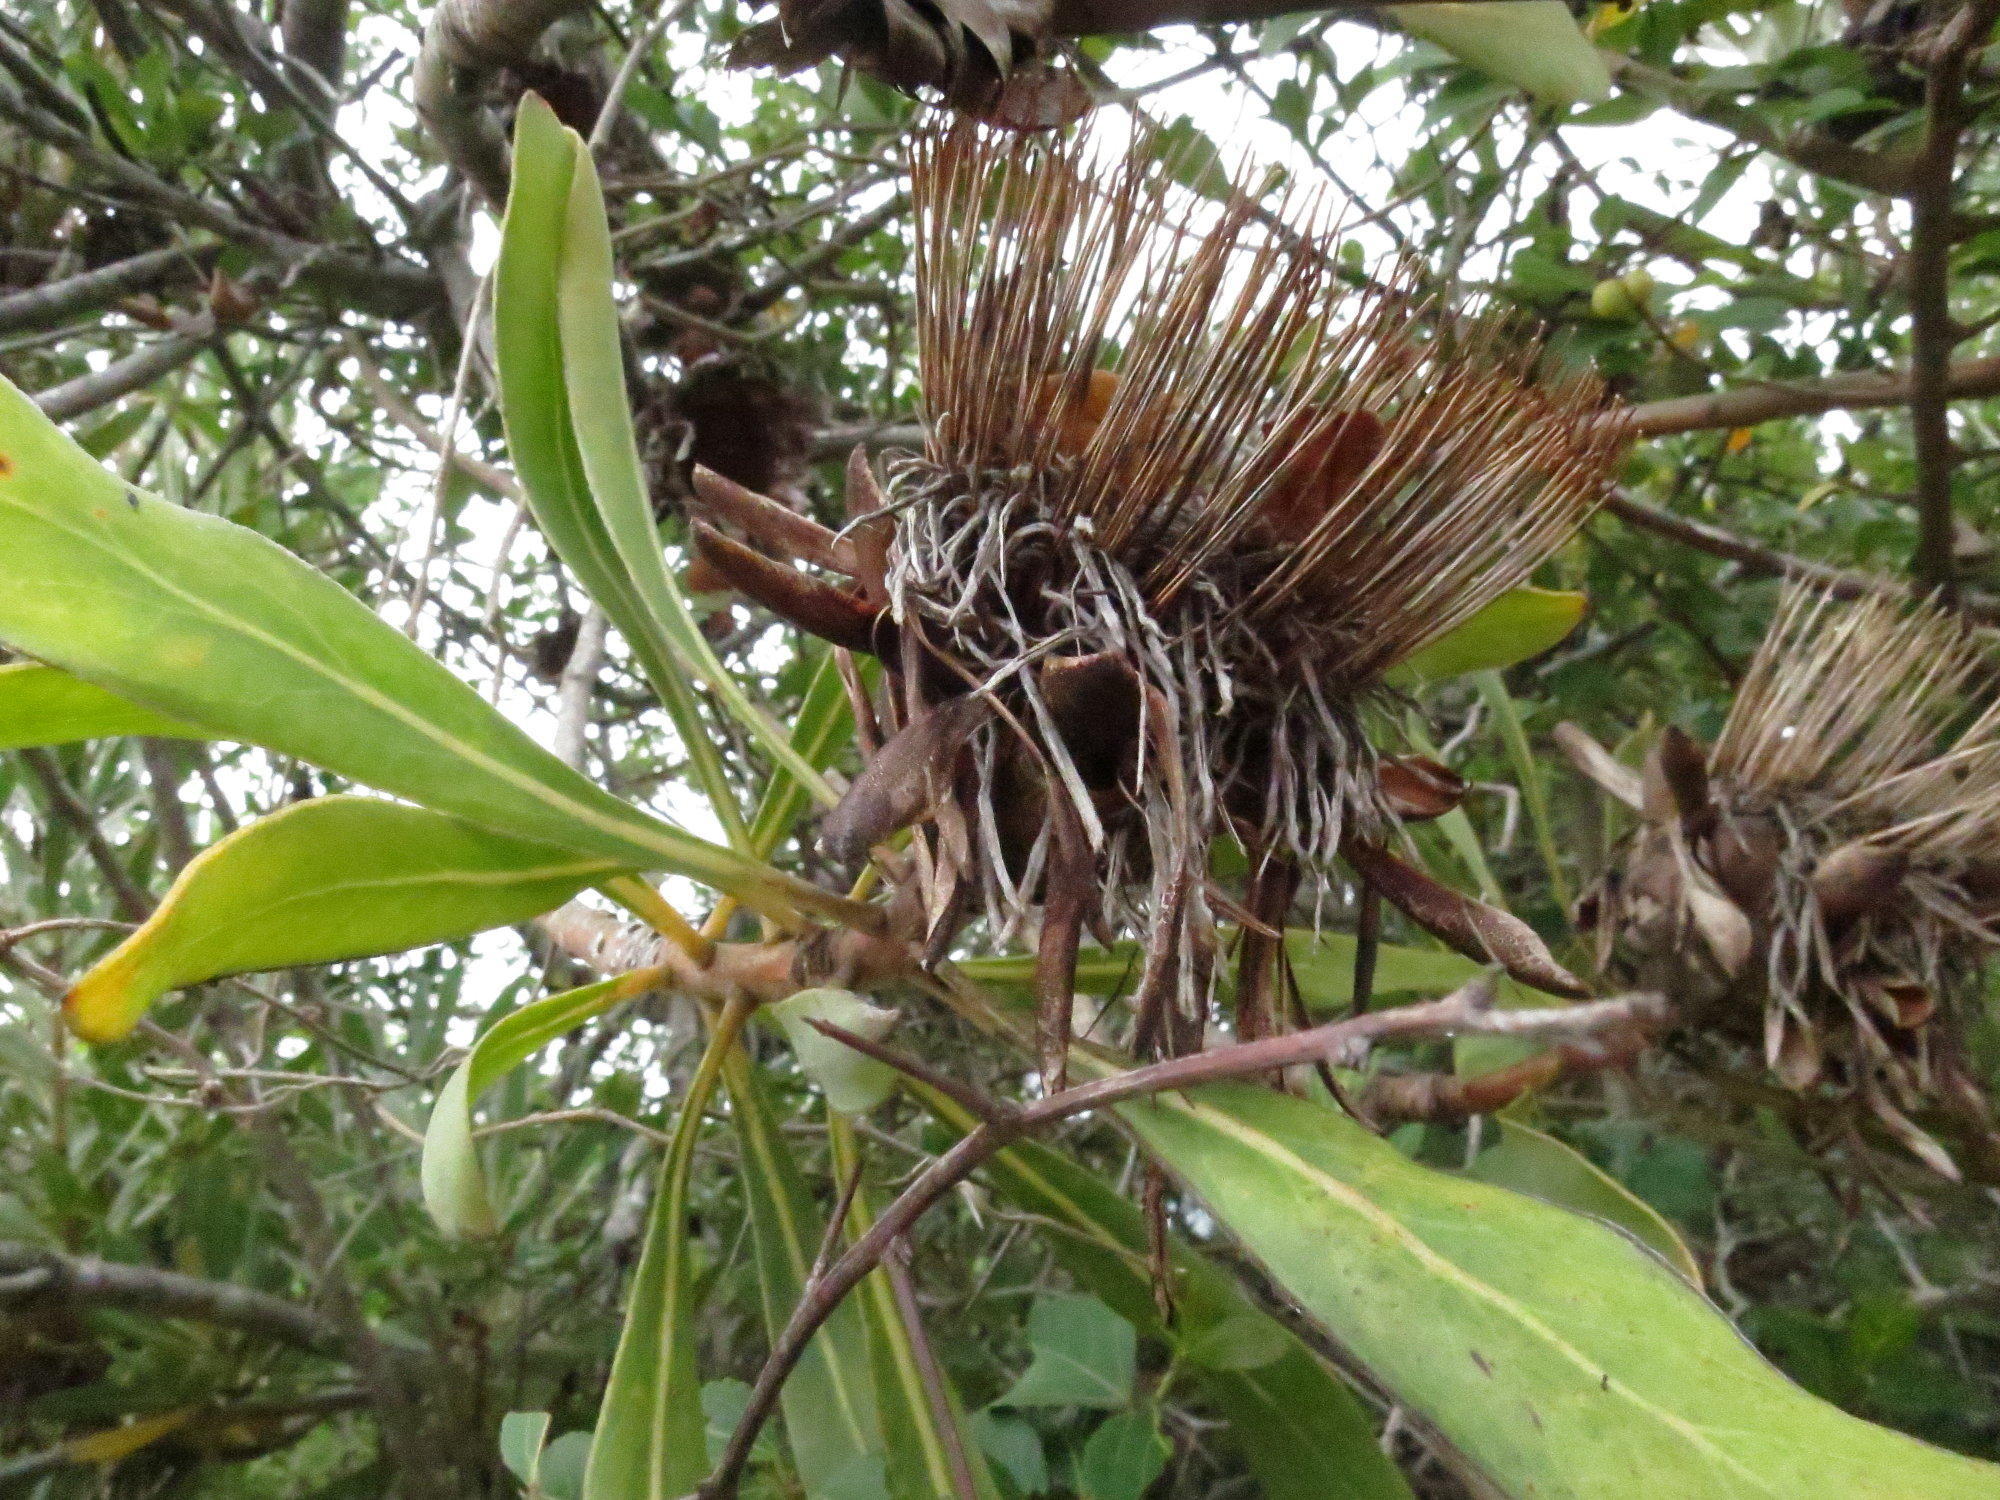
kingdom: Plantae
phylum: Tracheophyta
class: Magnoliopsida
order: Proteales
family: Proteaceae
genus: Protea
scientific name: Protea susannae
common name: Foetid-leaf sugarbush
